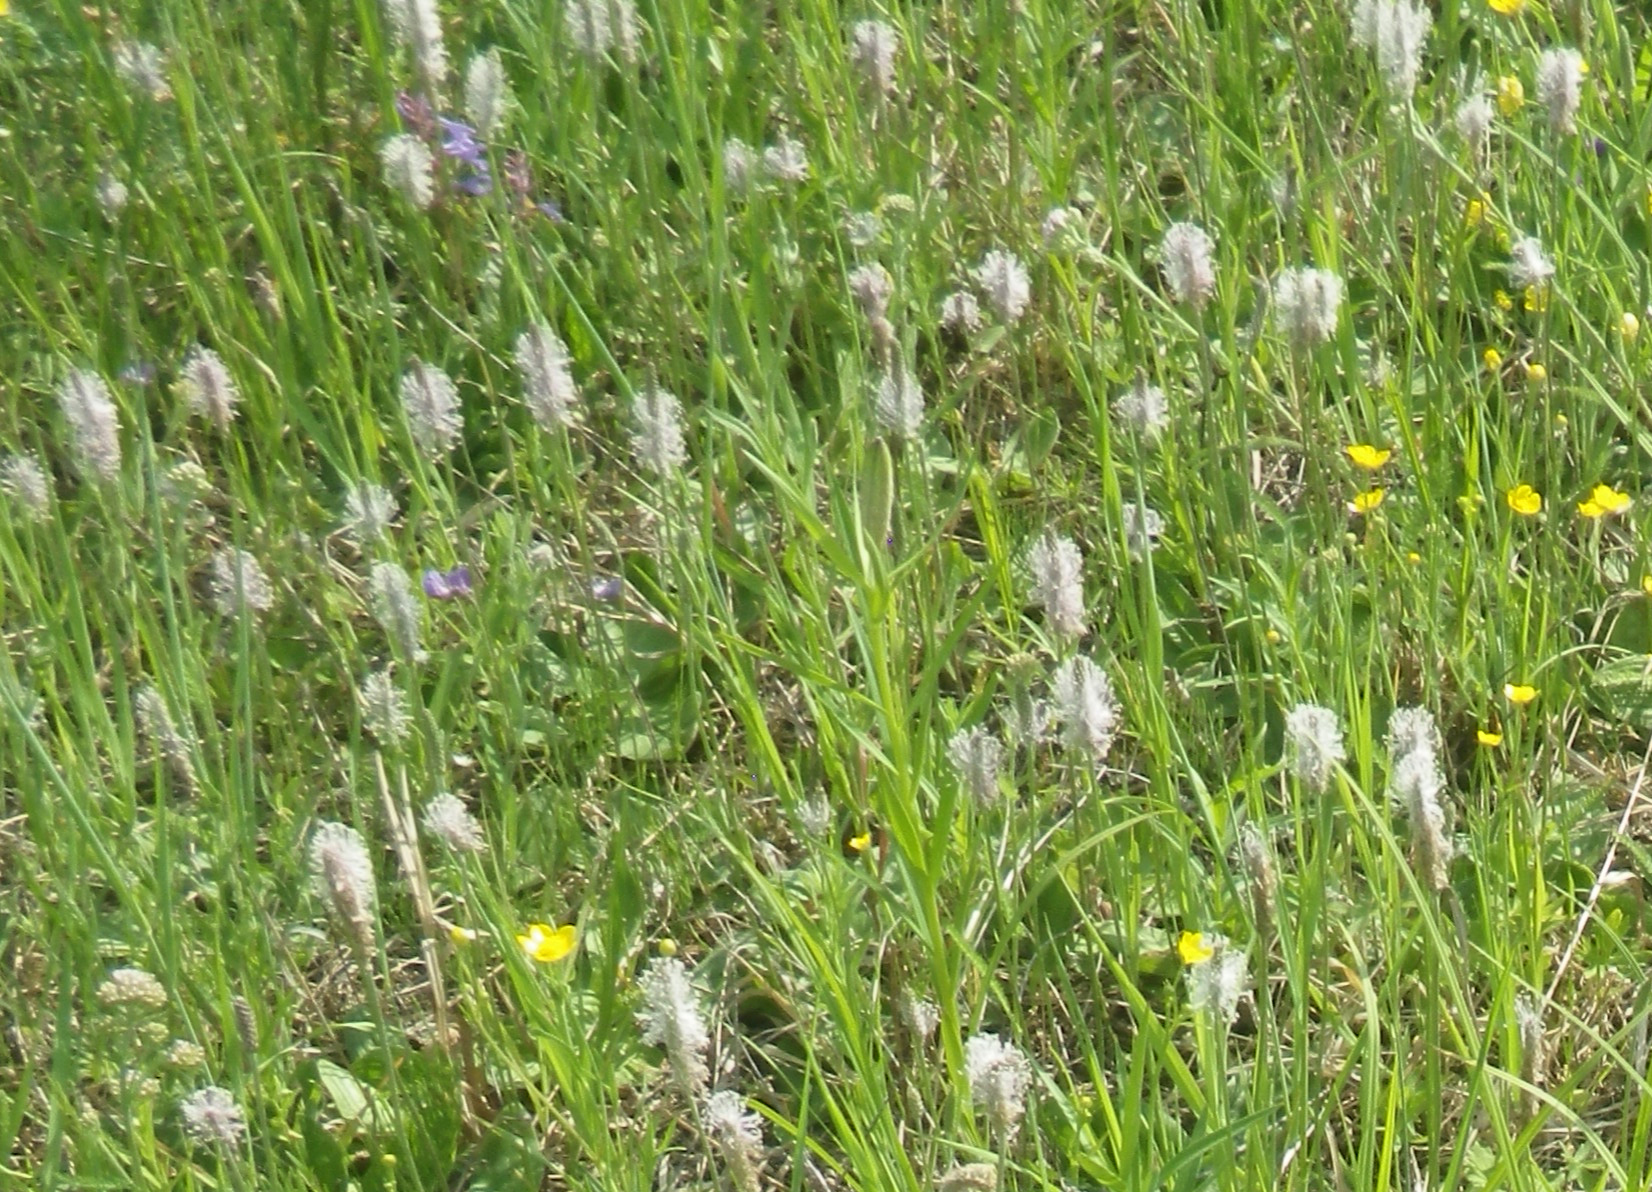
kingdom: Plantae
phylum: Tracheophyta
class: Liliopsida
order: Asparagales
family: Iridaceae
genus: Iris
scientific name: Iris setosa
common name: Arctic blue flag
